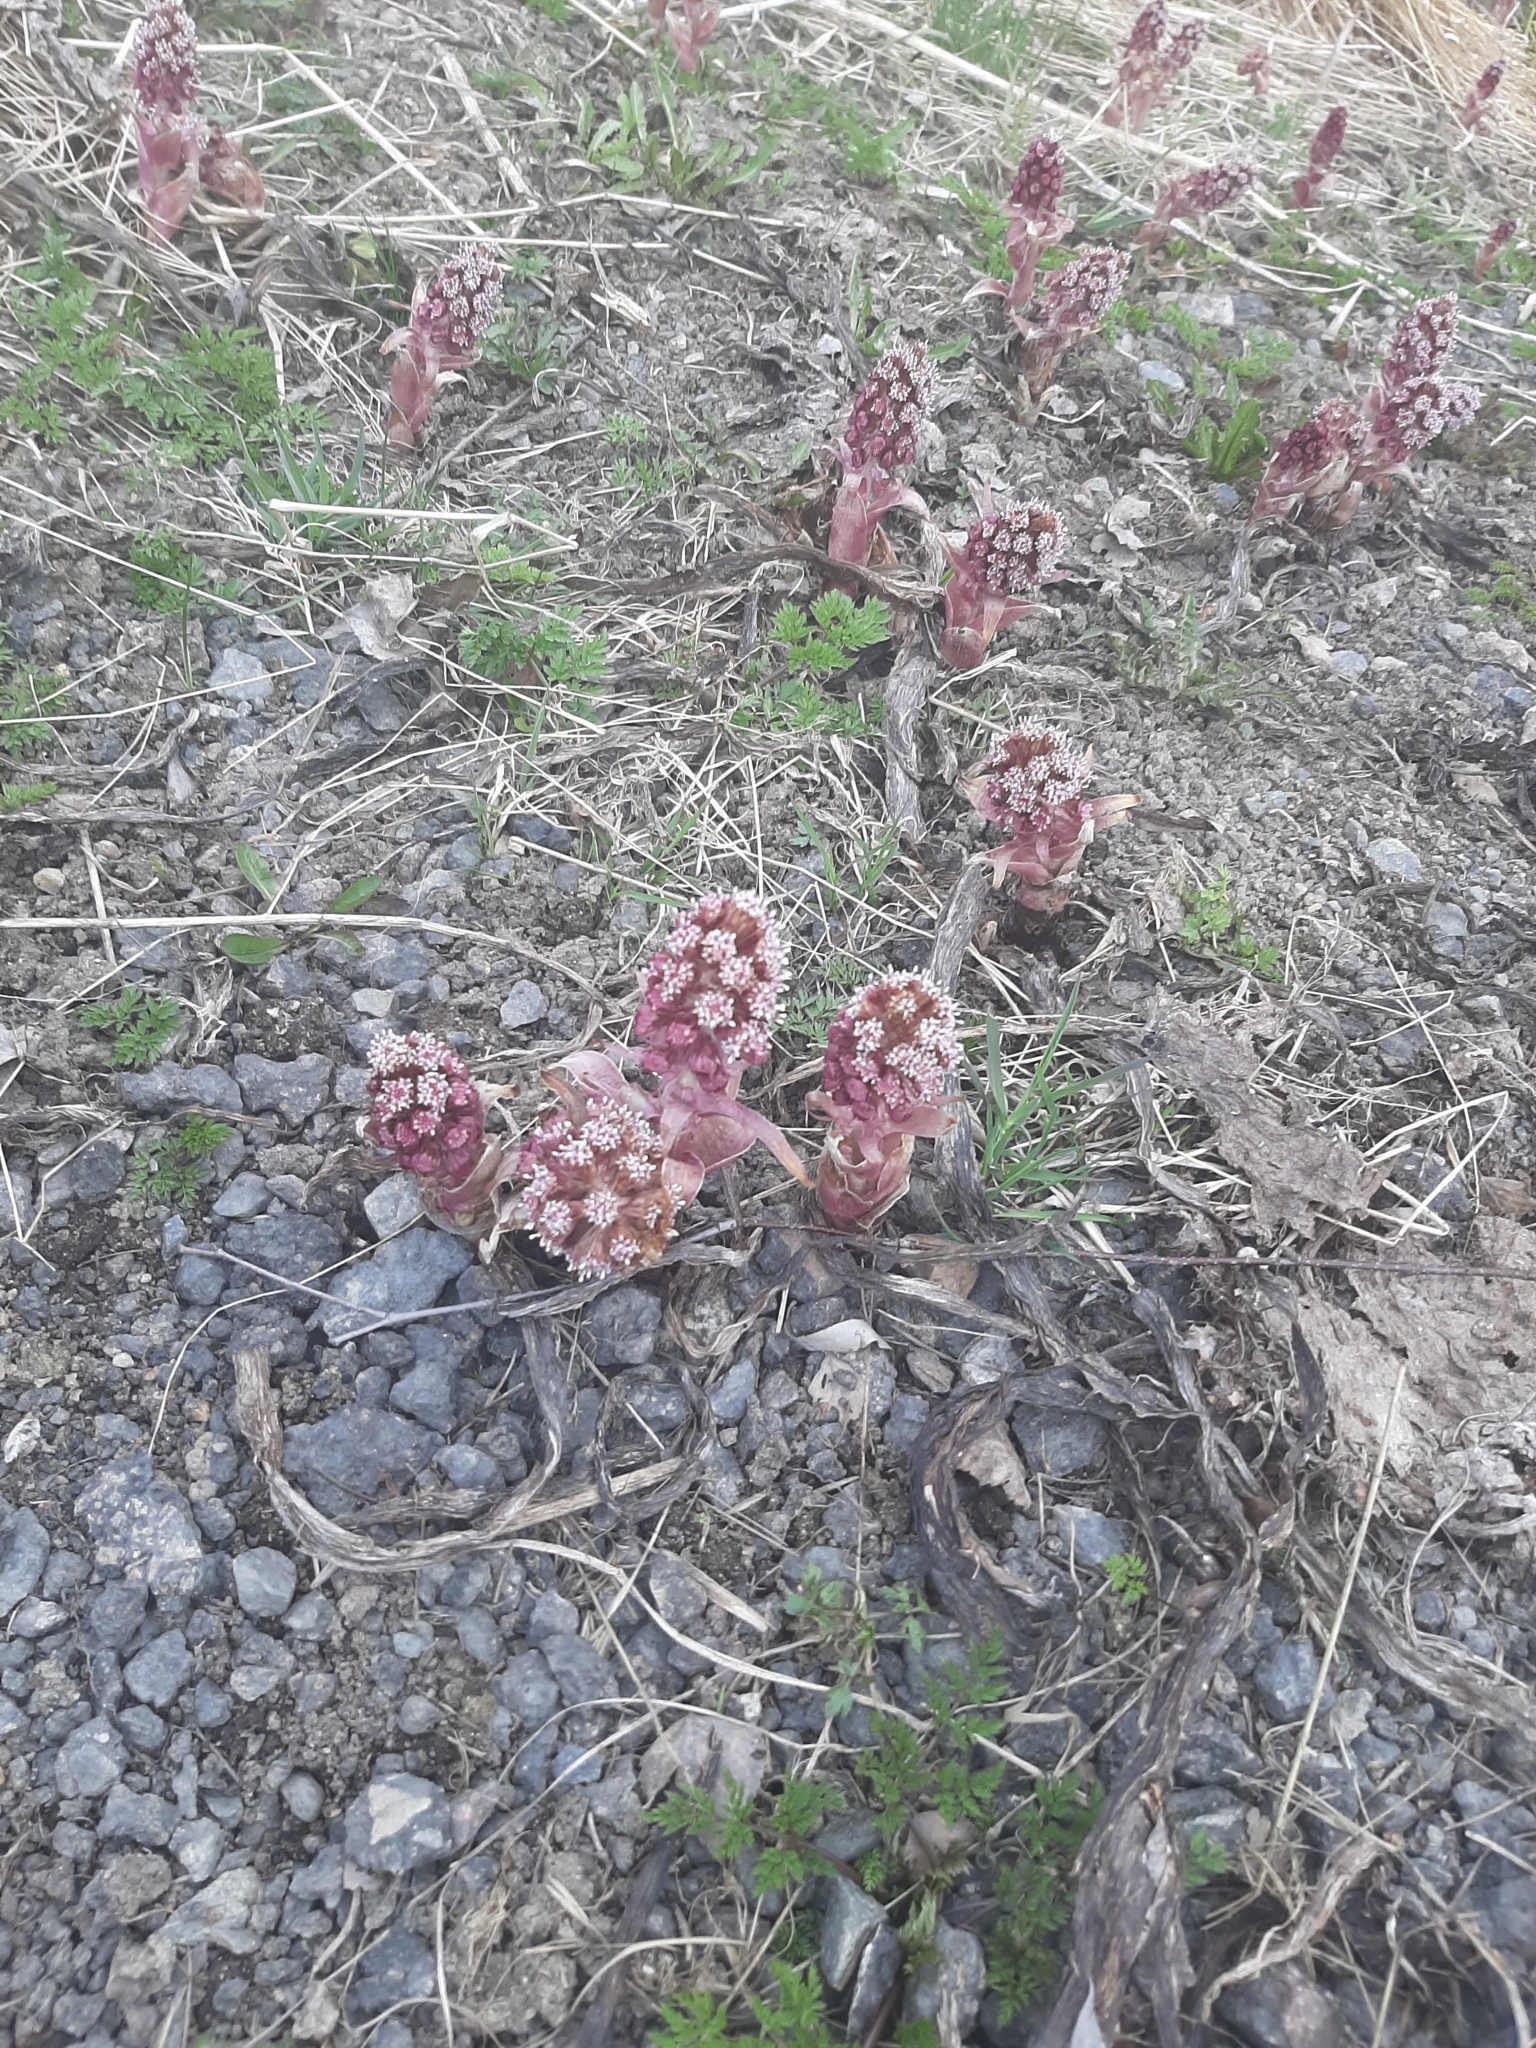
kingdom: Plantae
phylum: Tracheophyta
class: Magnoliopsida
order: Asterales
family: Asteraceae
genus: Petasites
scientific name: Petasites hybridus
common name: Butterbur
